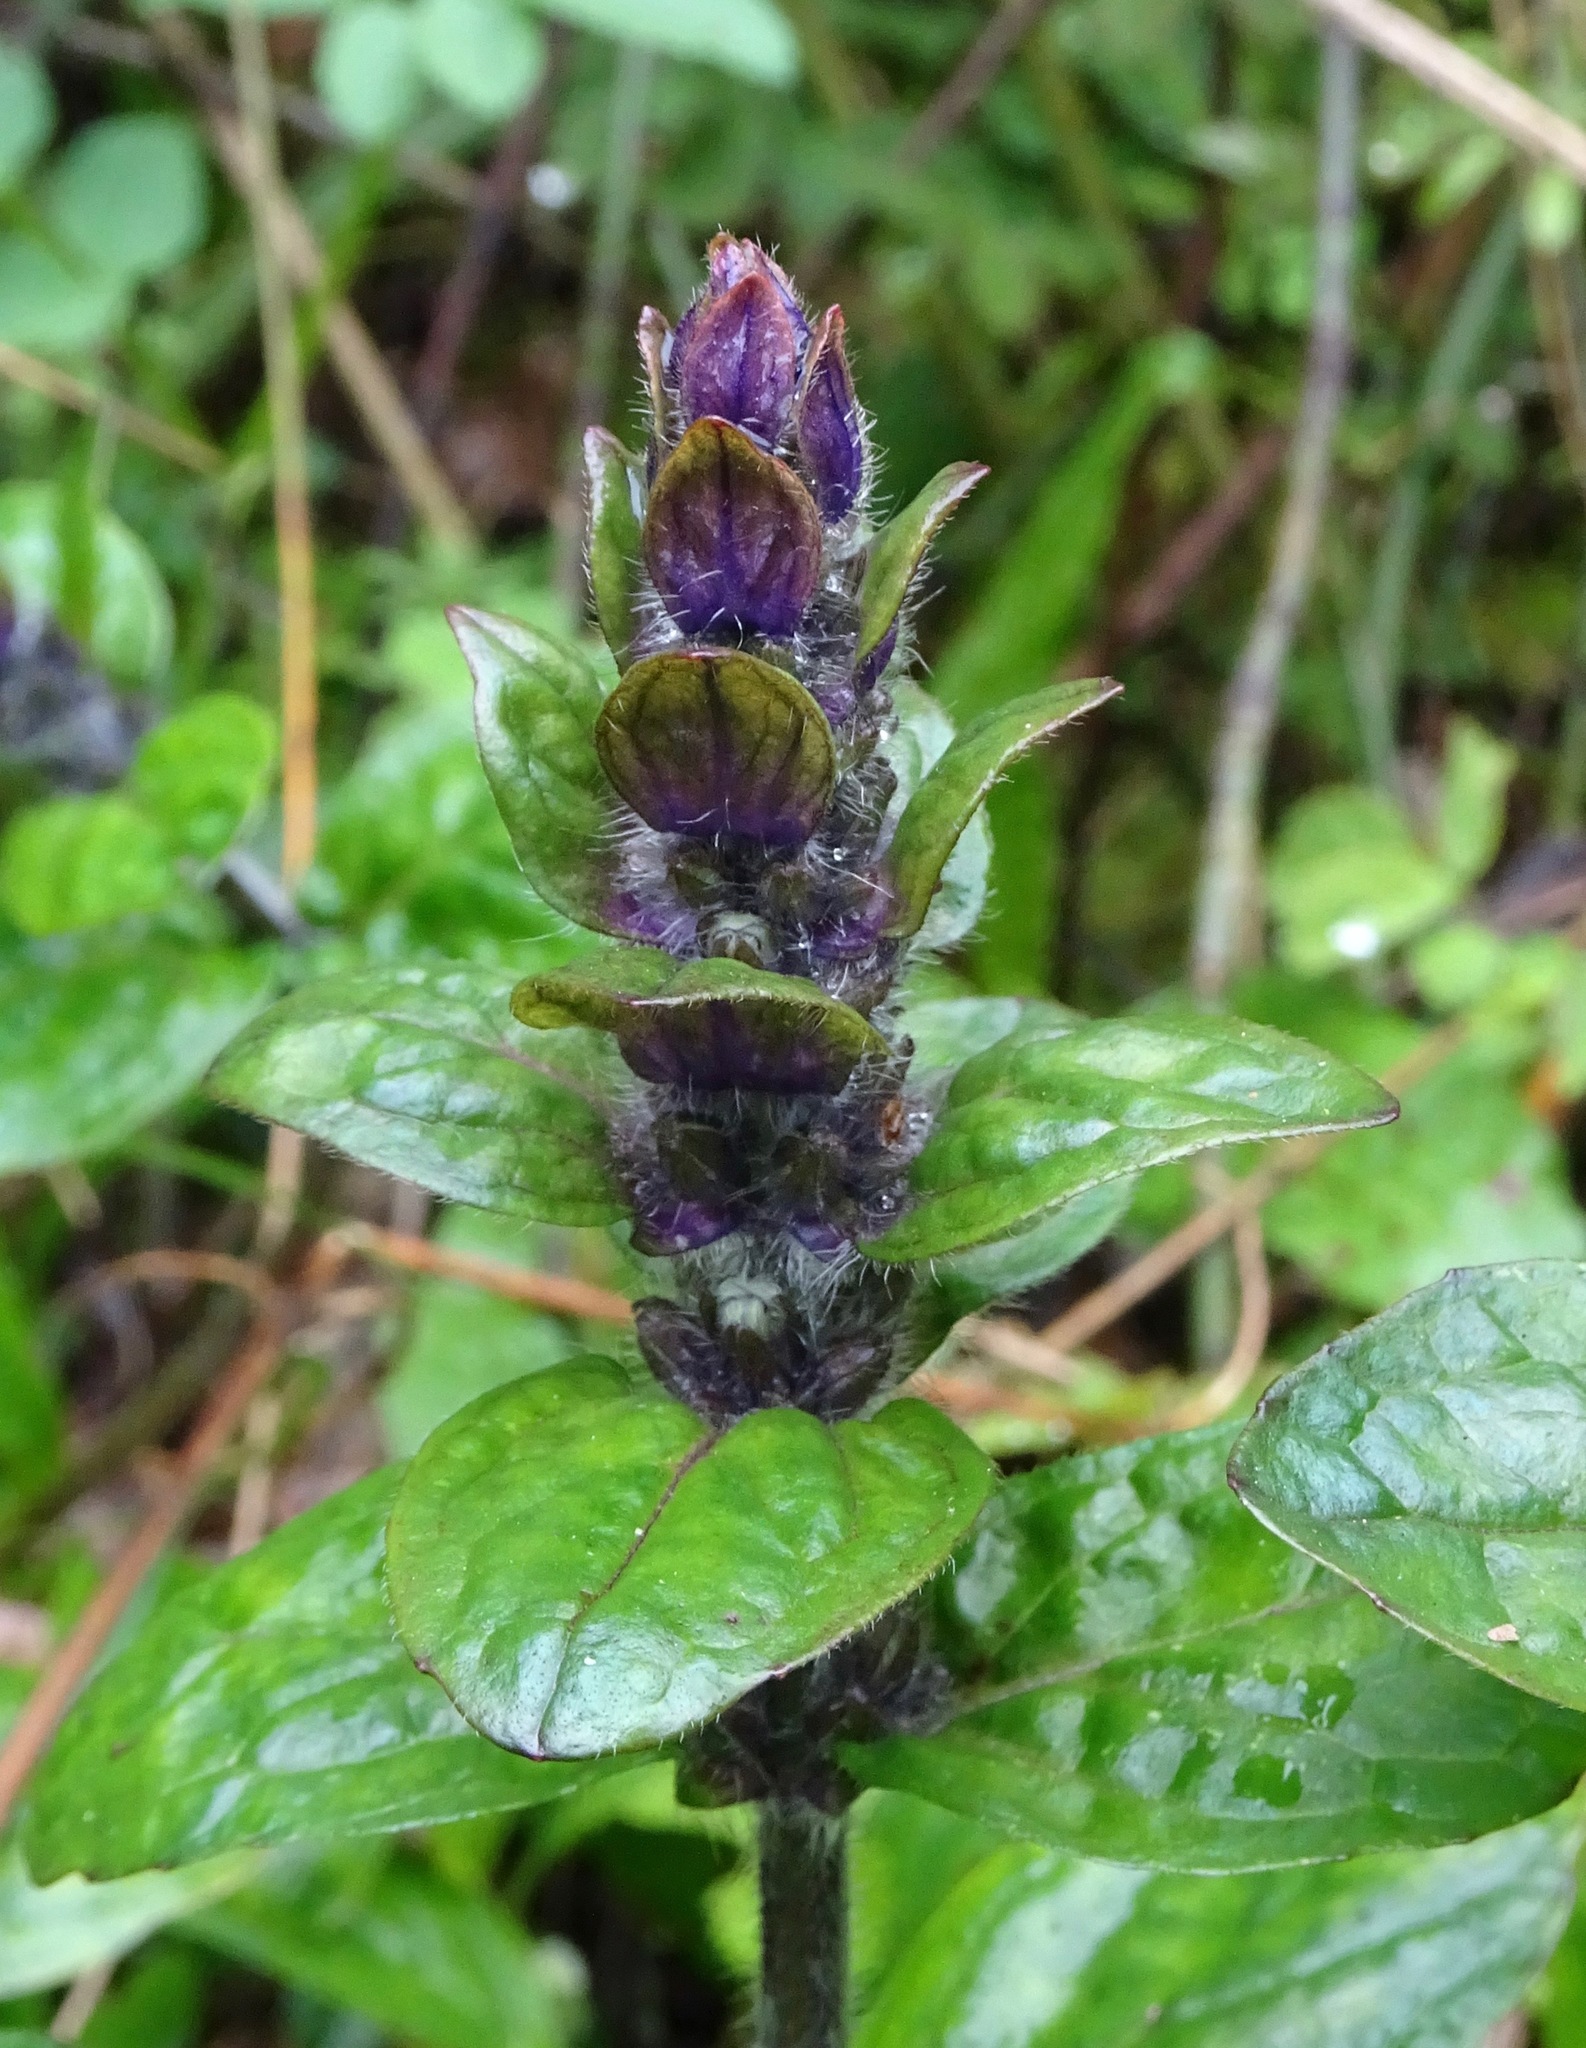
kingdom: Plantae
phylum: Tracheophyta
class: Magnoliopsida
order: Lamiales
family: Lamiaceae
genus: Ajuga
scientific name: Ajuga reptans
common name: Bugle
